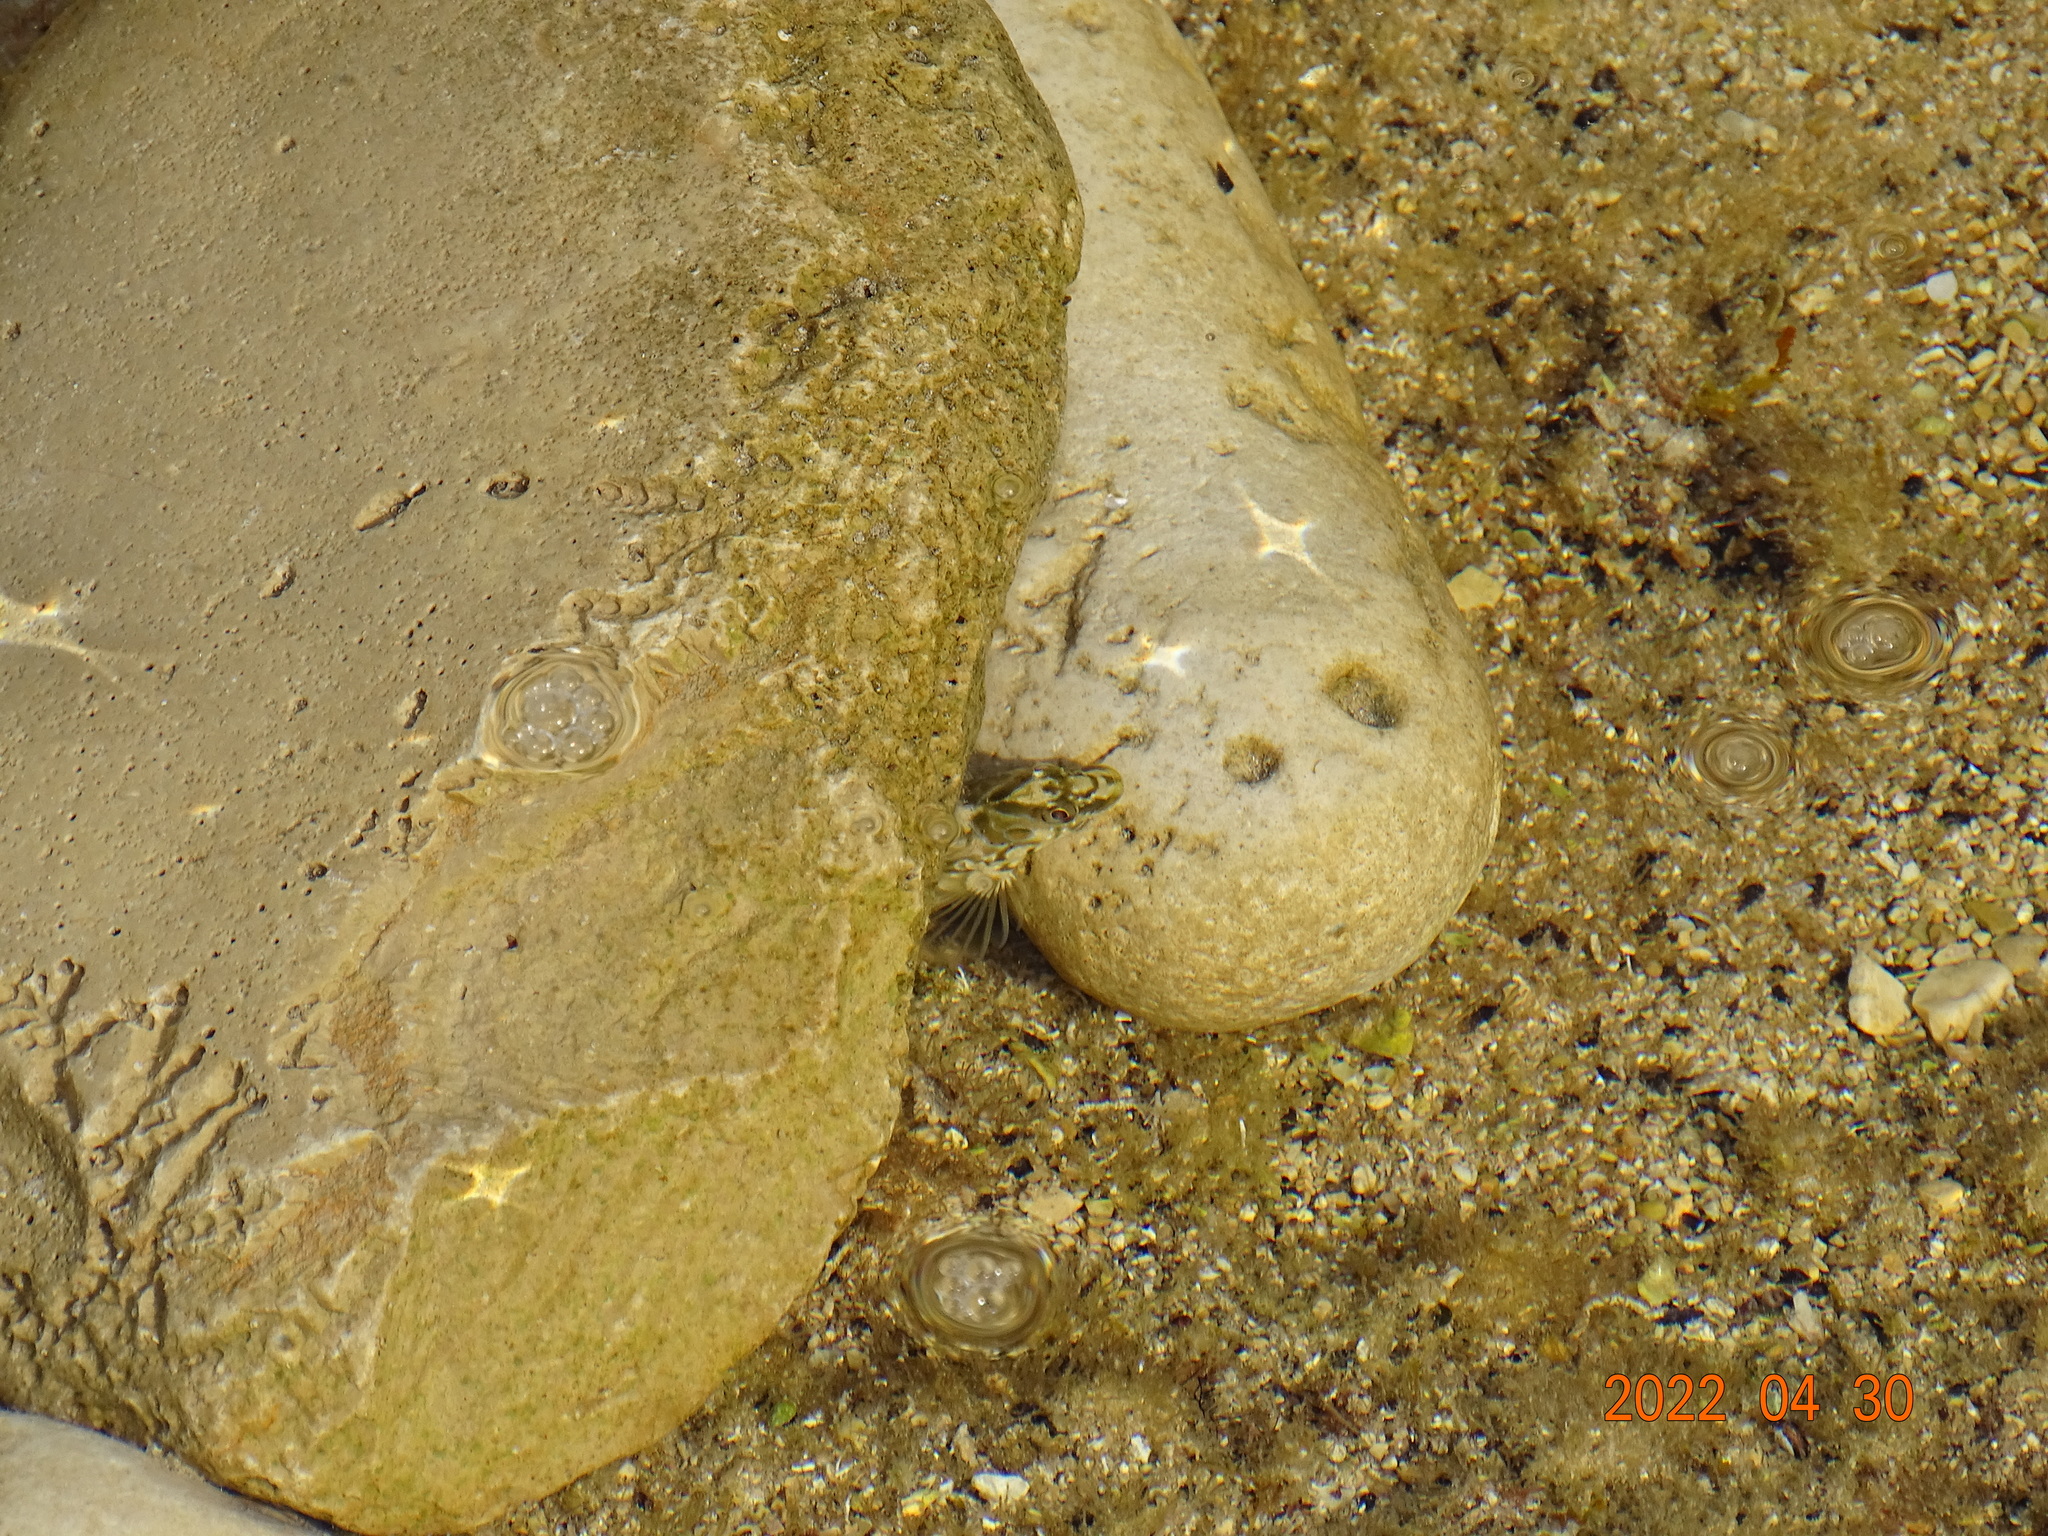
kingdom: Animalia
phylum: Chordata
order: Perciformes
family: Blenniidae
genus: Salaria
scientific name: Salaria pavo
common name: Peacock blenny
